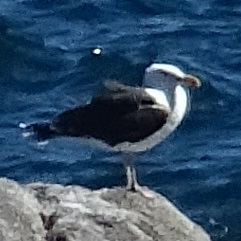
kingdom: Animalia
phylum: Chordata
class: Aves
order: Charadriiformes
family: Laridae
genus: Larus
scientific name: Larus marinus
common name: Great black-backed gull
